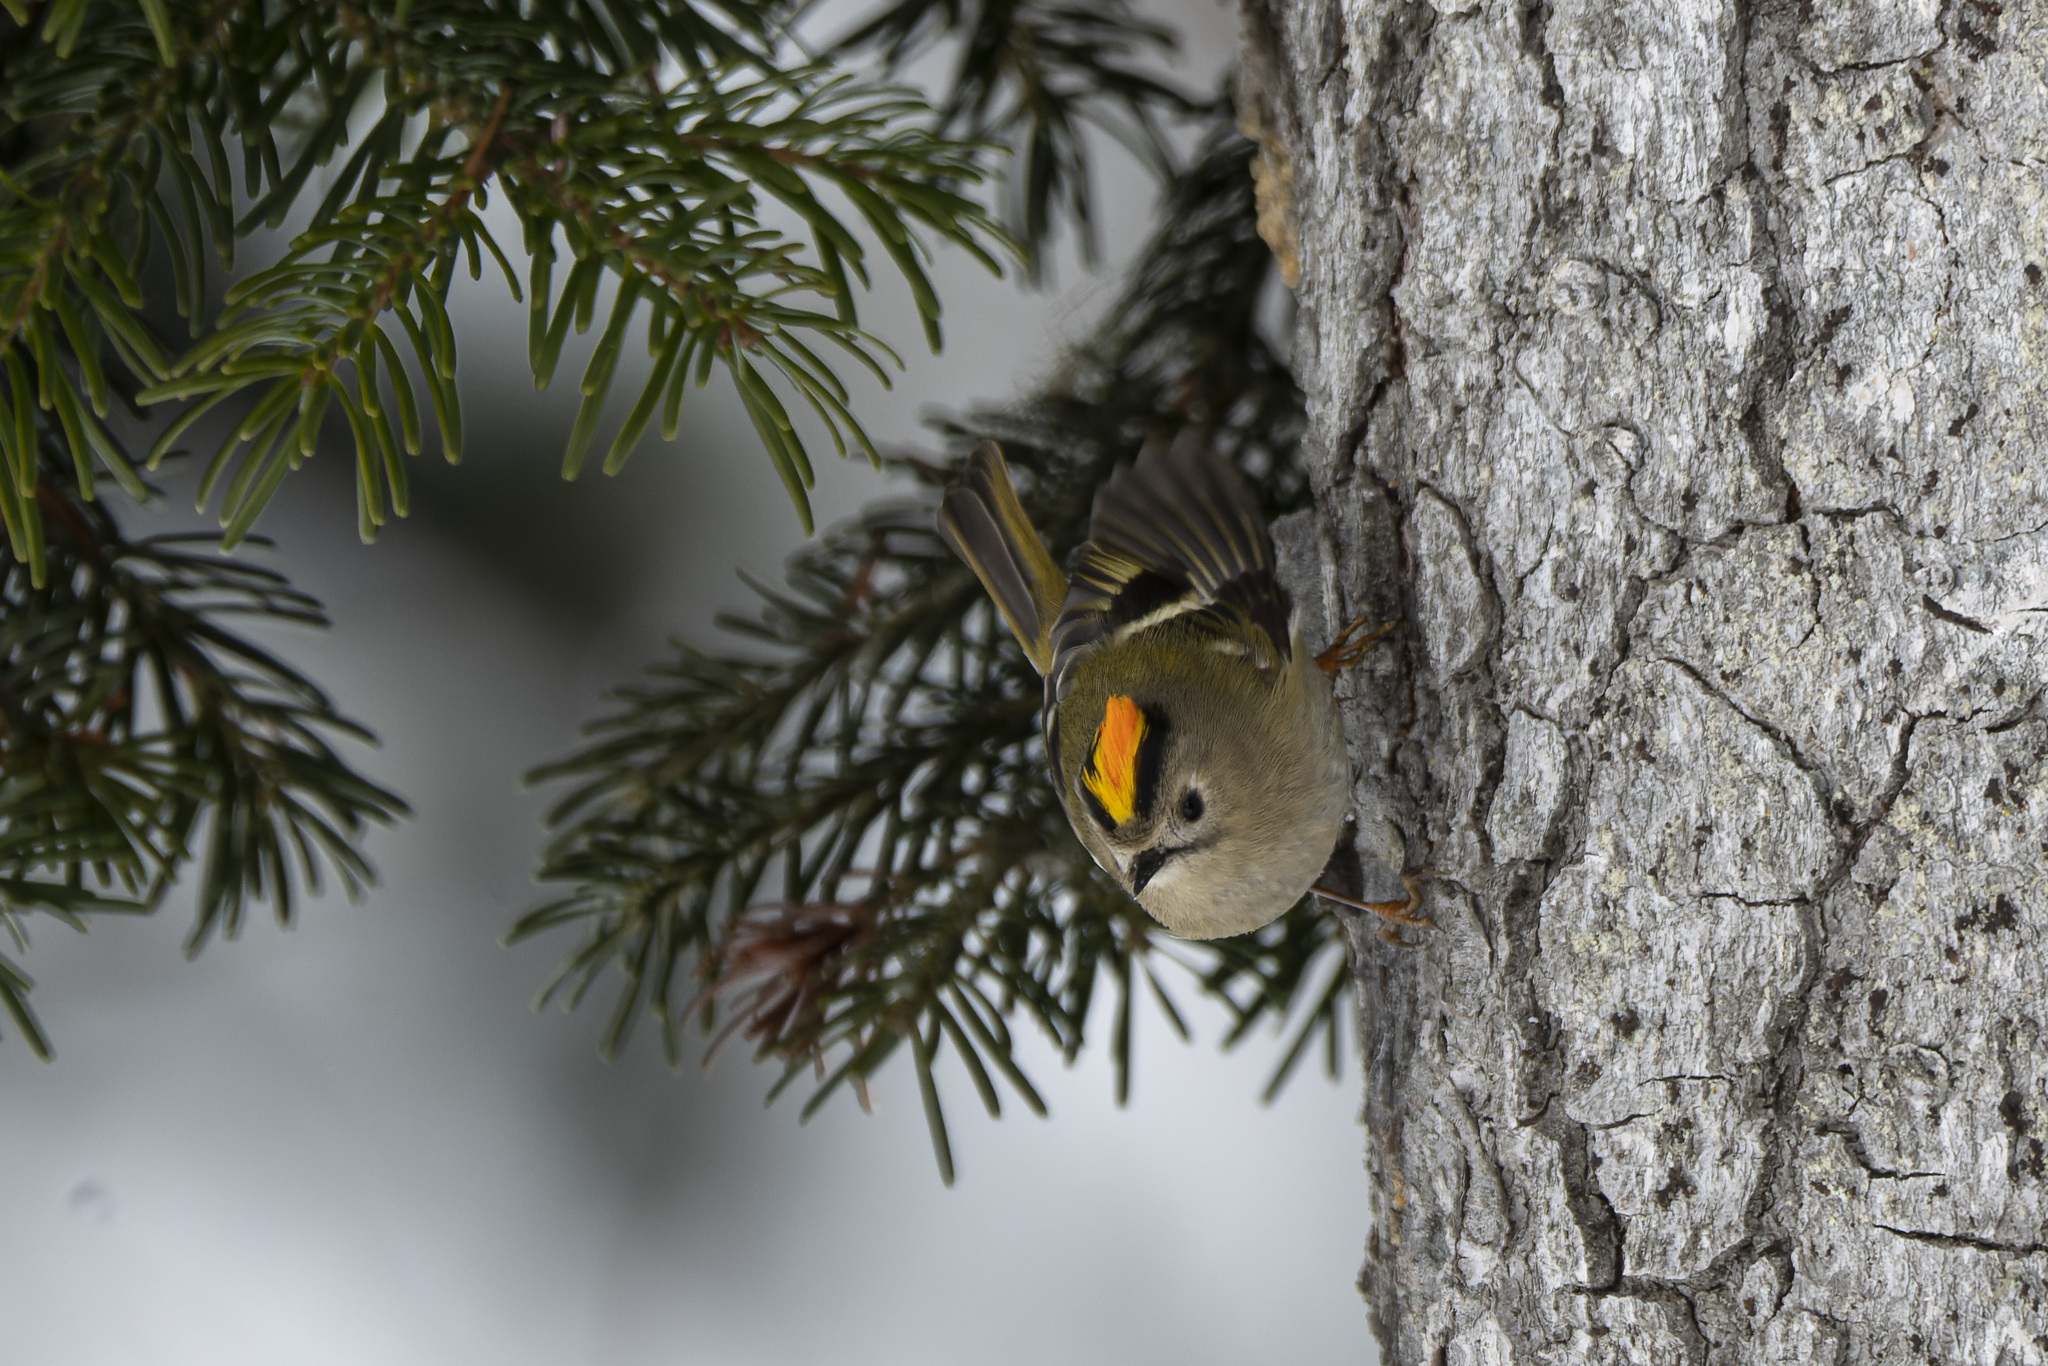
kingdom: Animalia
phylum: Chordata
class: Aves
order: Passeriformes
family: Regulidae
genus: Regulus
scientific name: Regulus regulus
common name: Goldcrest
